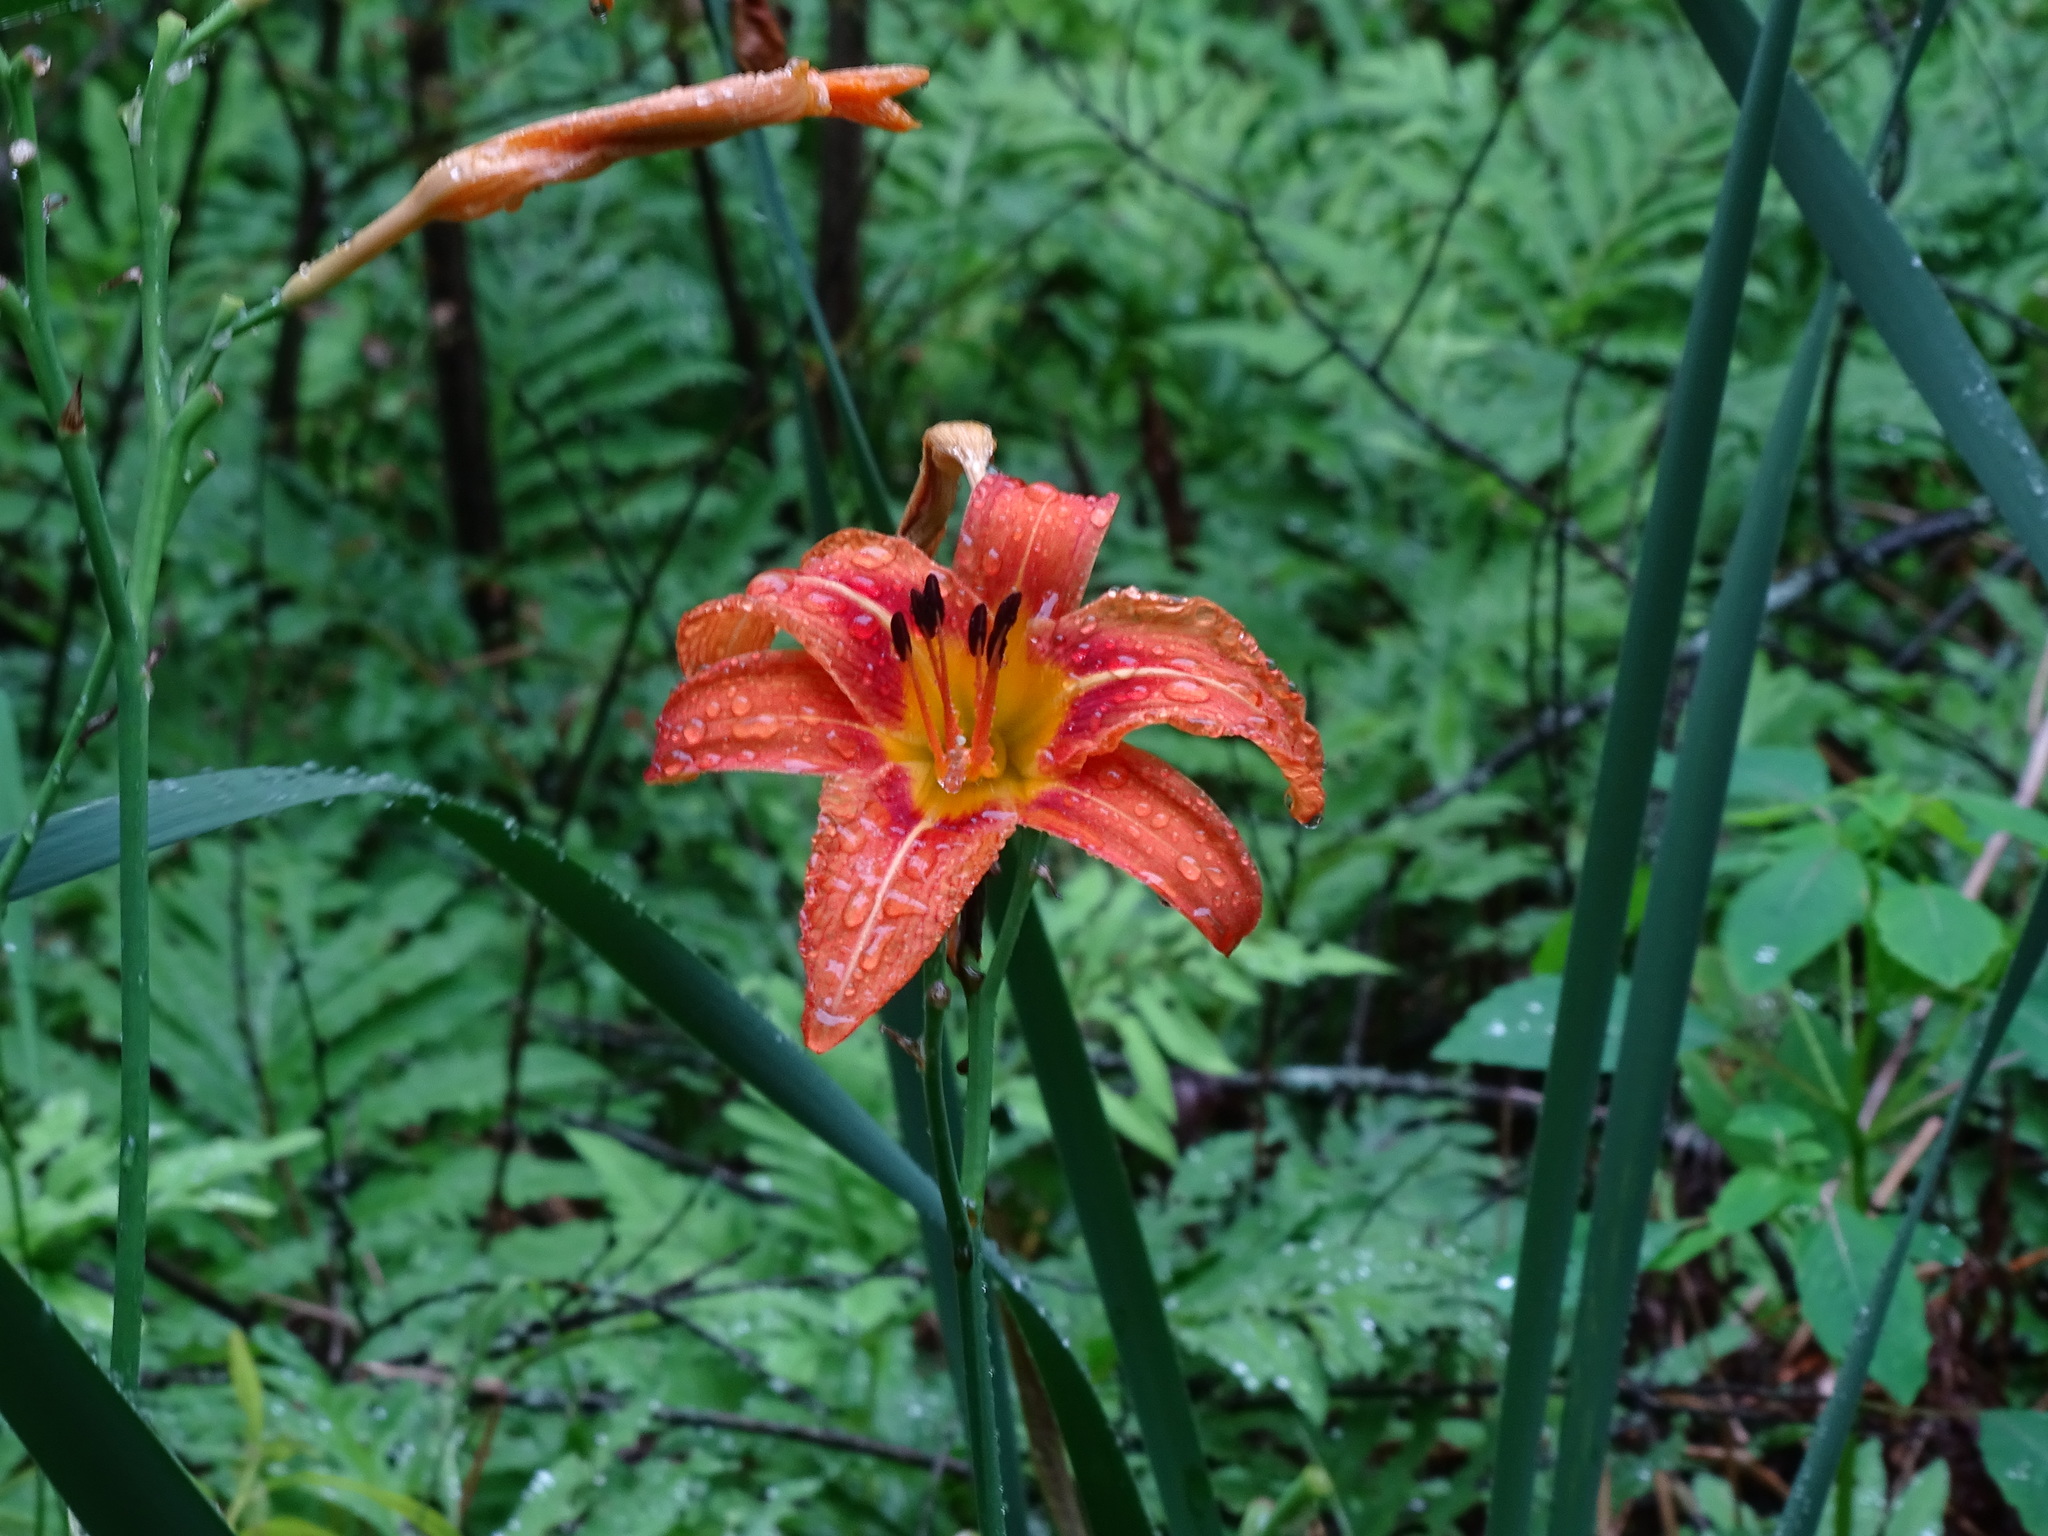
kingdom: Plantae
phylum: Tracheophyta
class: Liliopsida
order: Asparagales
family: Asphodelaceae
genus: Hemerocallis
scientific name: Hemerocallis fulva
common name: Orange day-lily
